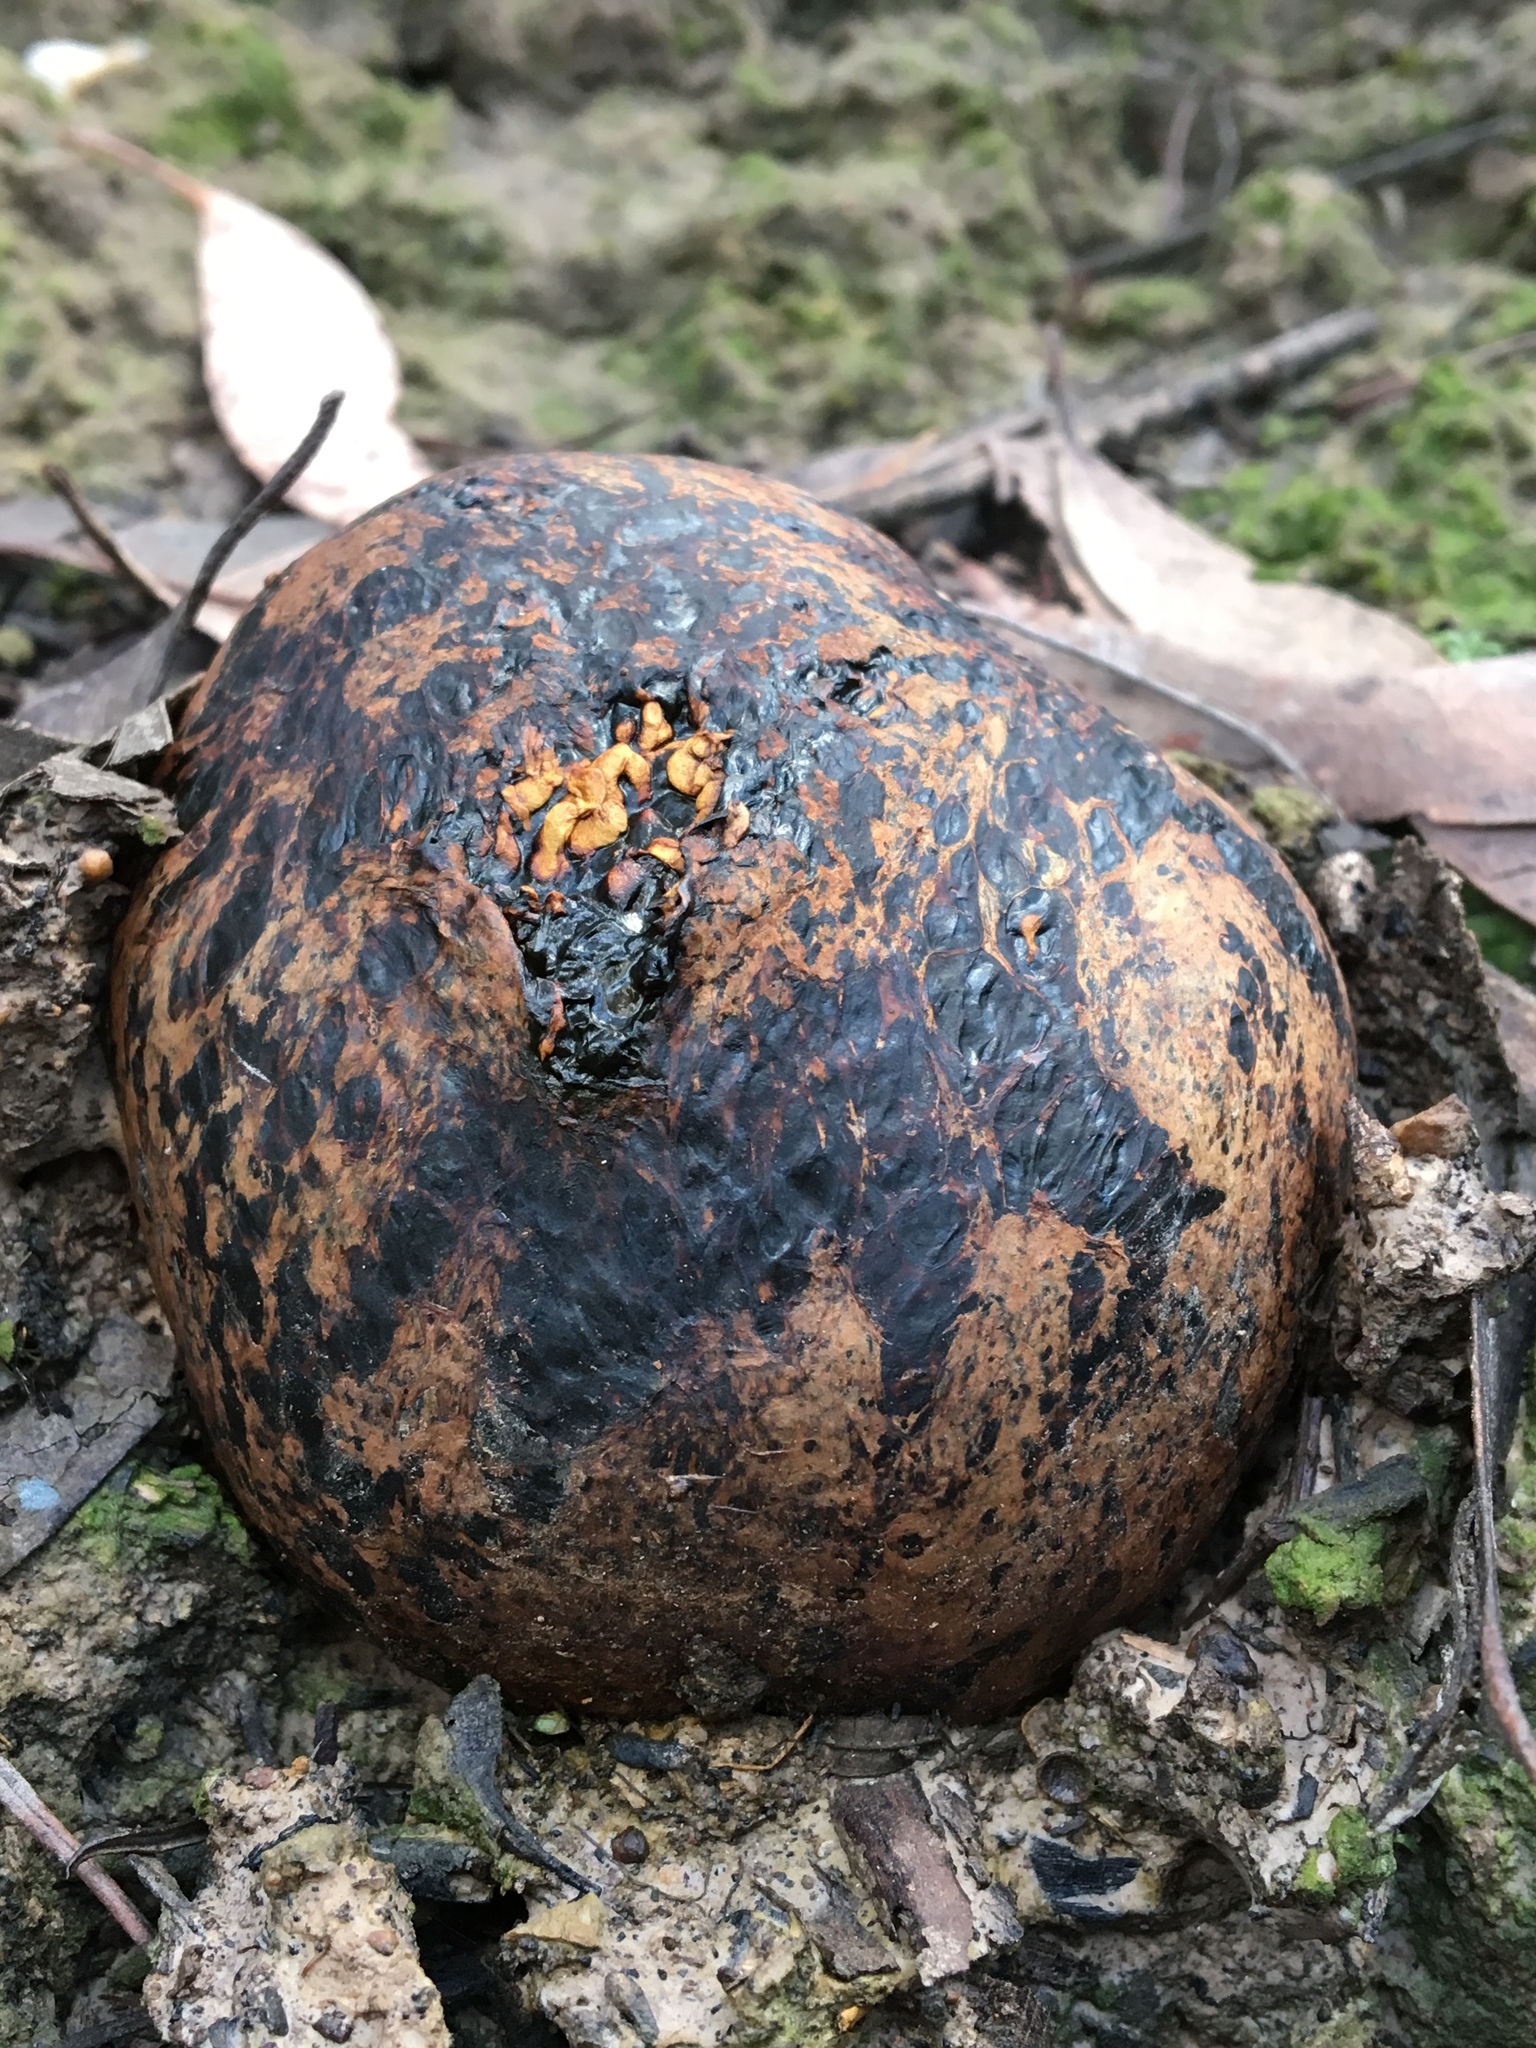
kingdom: Fungi
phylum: Basidiomycota
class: Agaricomycetes
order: Boletales
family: Sclerodermataceae
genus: Pisolithus
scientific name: Pisolithus arhizus
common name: Dyeball
